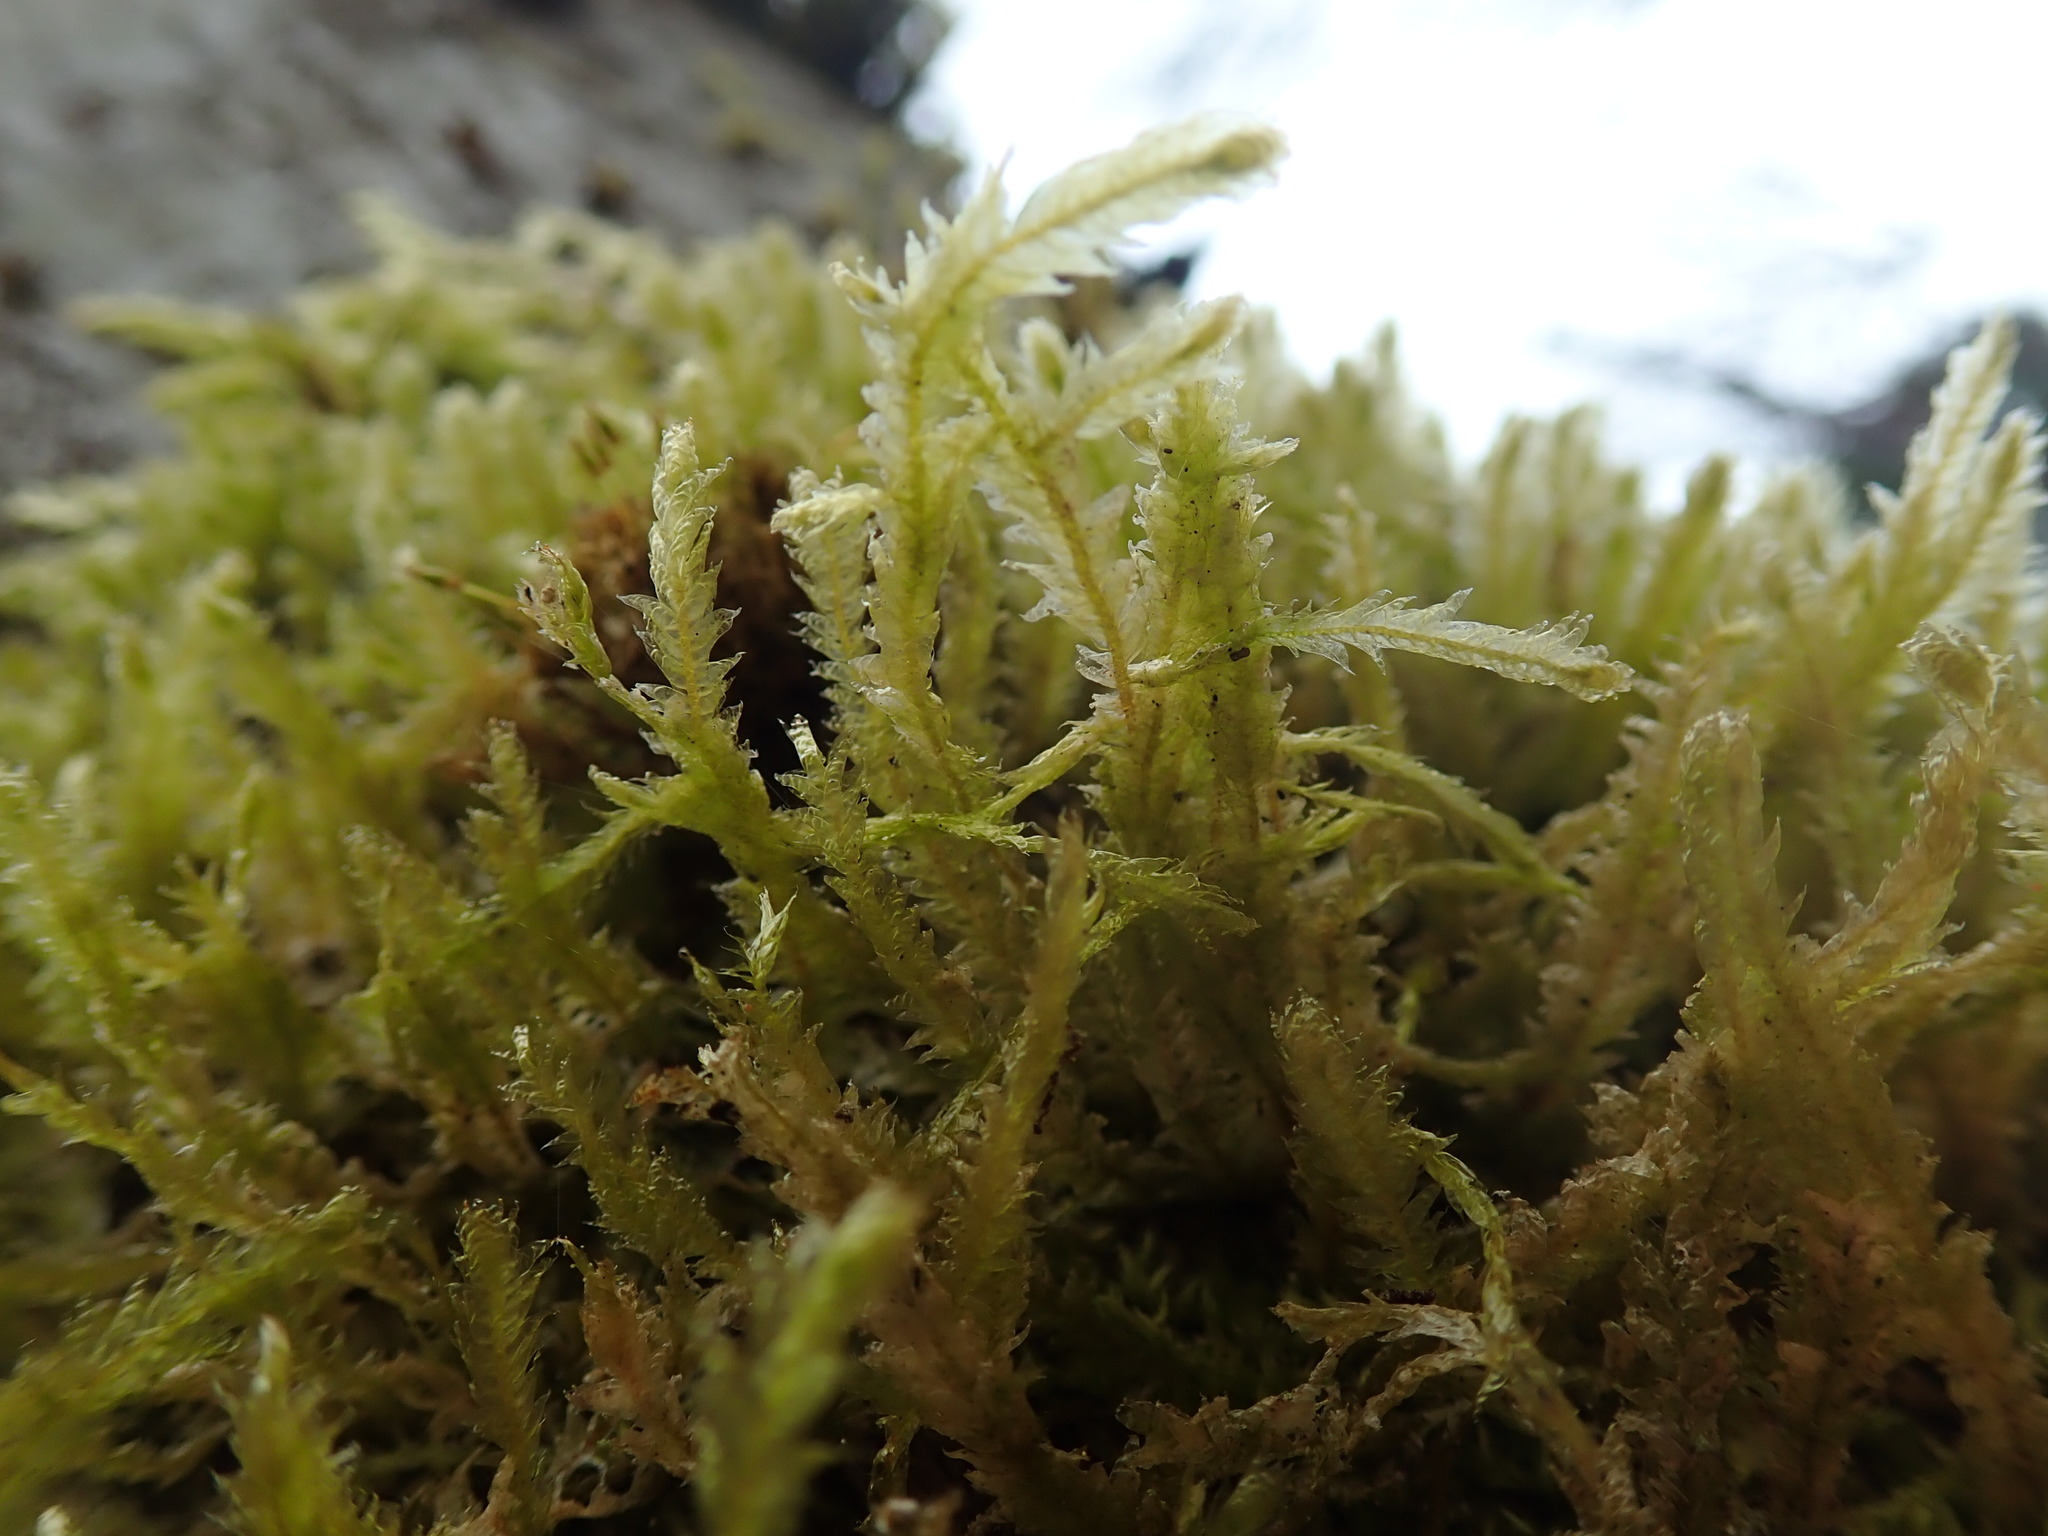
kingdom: Plantae
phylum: Bryophyta
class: Bryopsida
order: Hypnales
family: Neckeraceae
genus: Neckera
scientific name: Neckera douglasii
